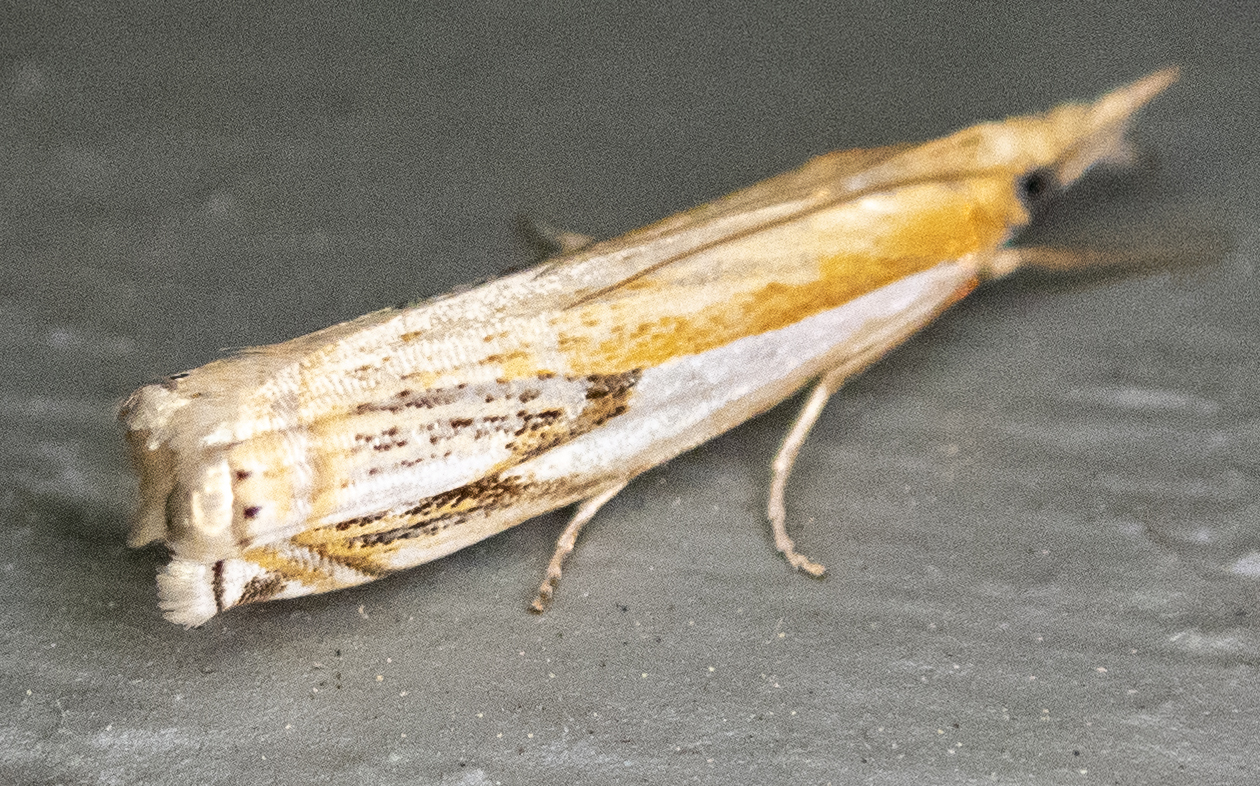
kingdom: Animalia
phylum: Arthropoda
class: Insecta
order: Lepidoptera
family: Crambidae
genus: Crambus
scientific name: Crambus agitatellus
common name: Double-banded grass-veneer
